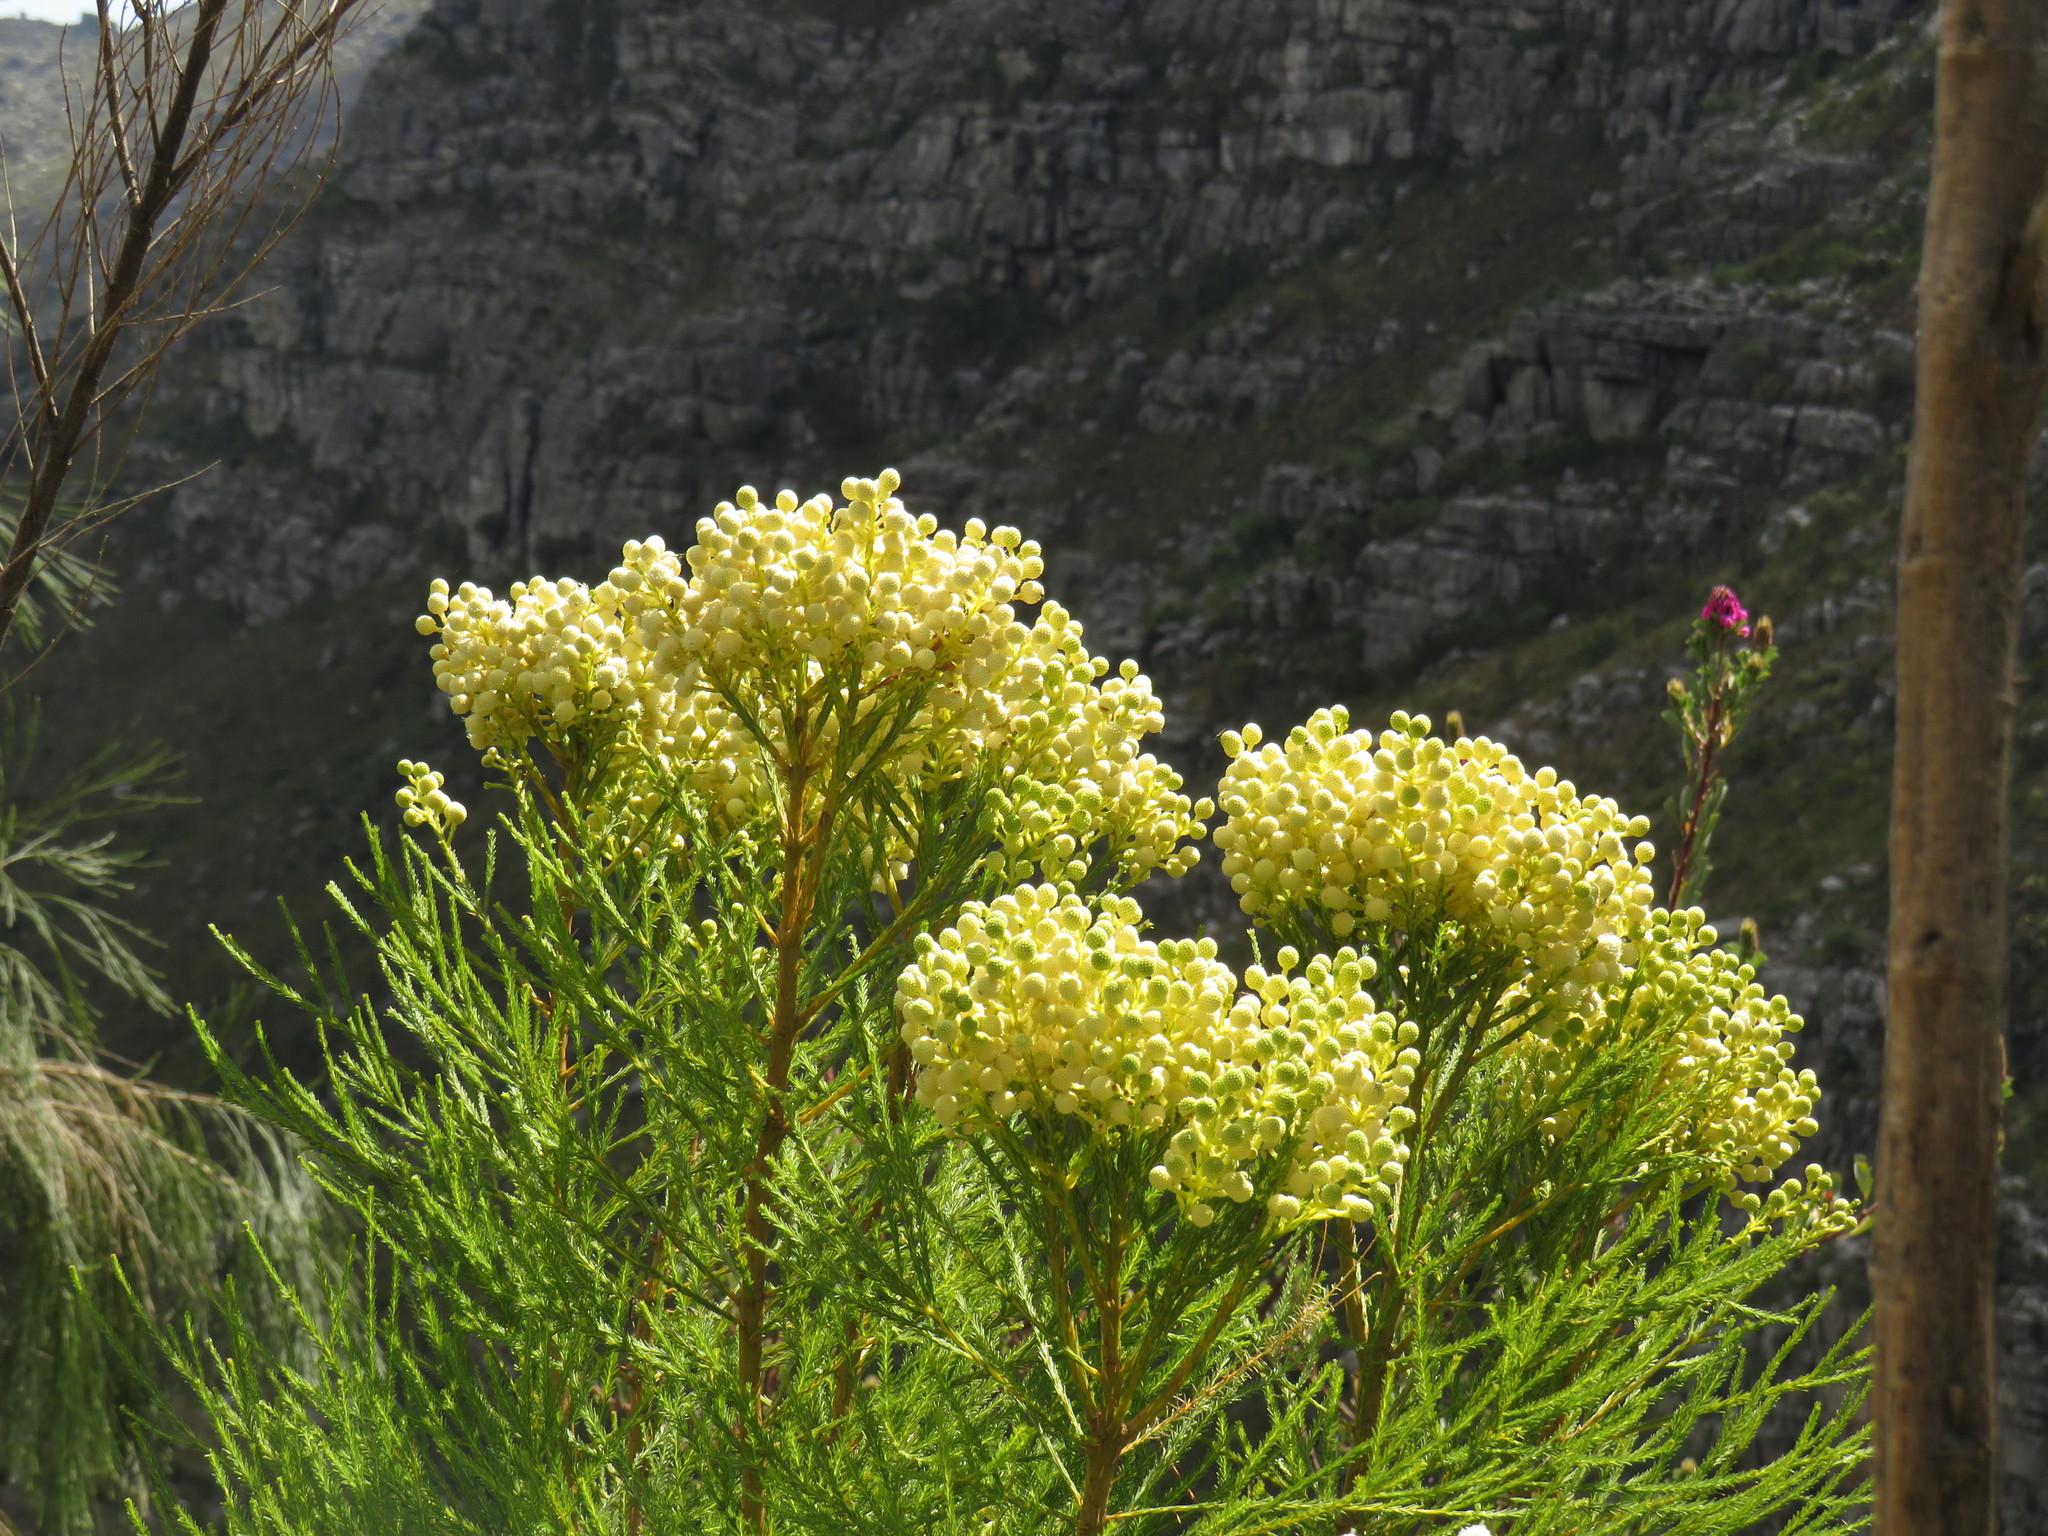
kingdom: Plantae
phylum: Tracheophyta
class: Magnoliopsida
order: Bruniales
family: Bruniaceae
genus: Berzelia
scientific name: Berzelia lanuginosa
